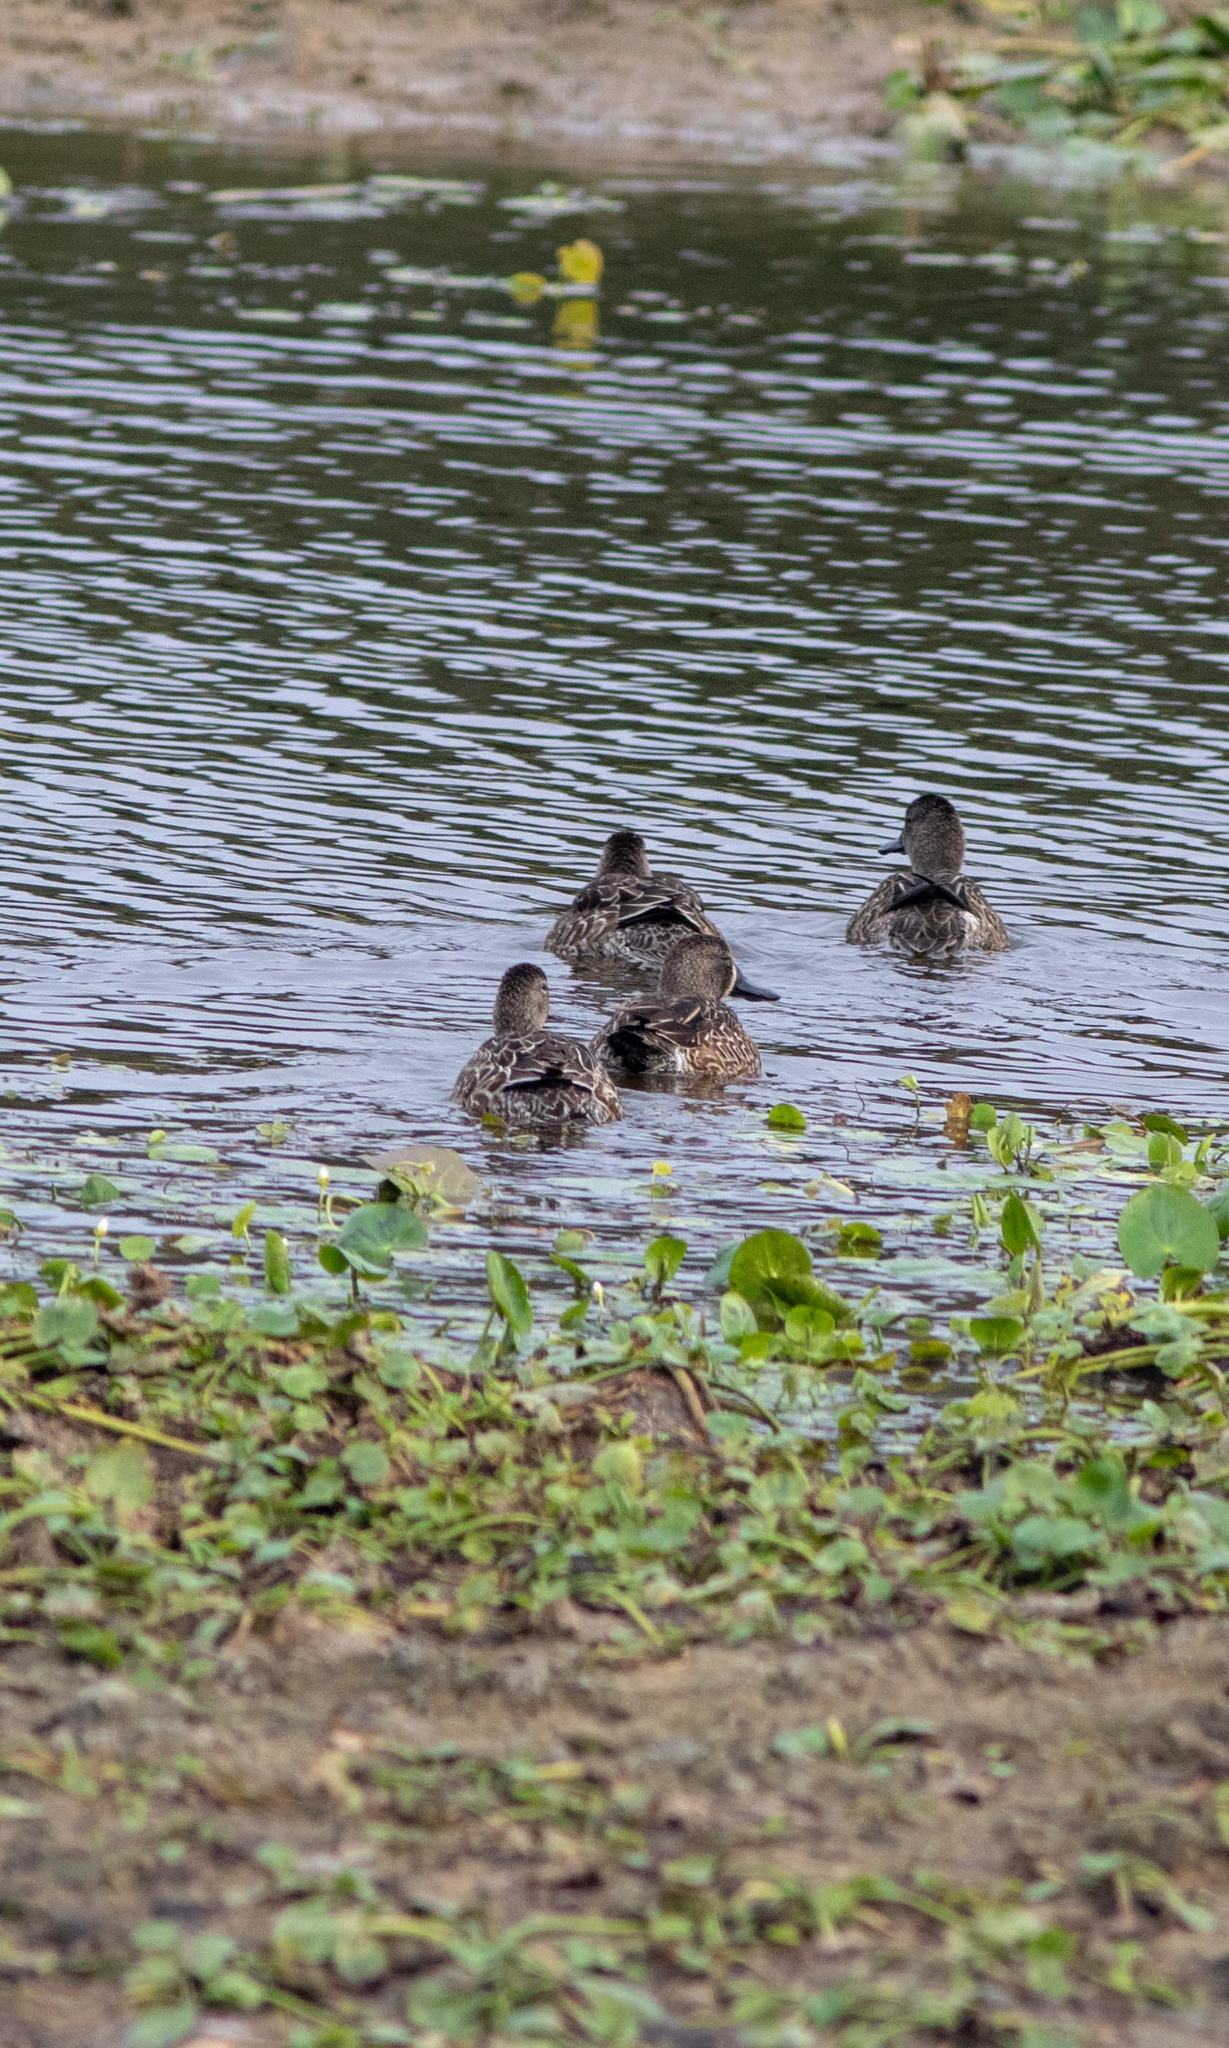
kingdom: Animalia
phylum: Chordata
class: Aves
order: Anseriformes
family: Anatidae
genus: Spatula
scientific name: Spatula discors
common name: Blue-winged teal
